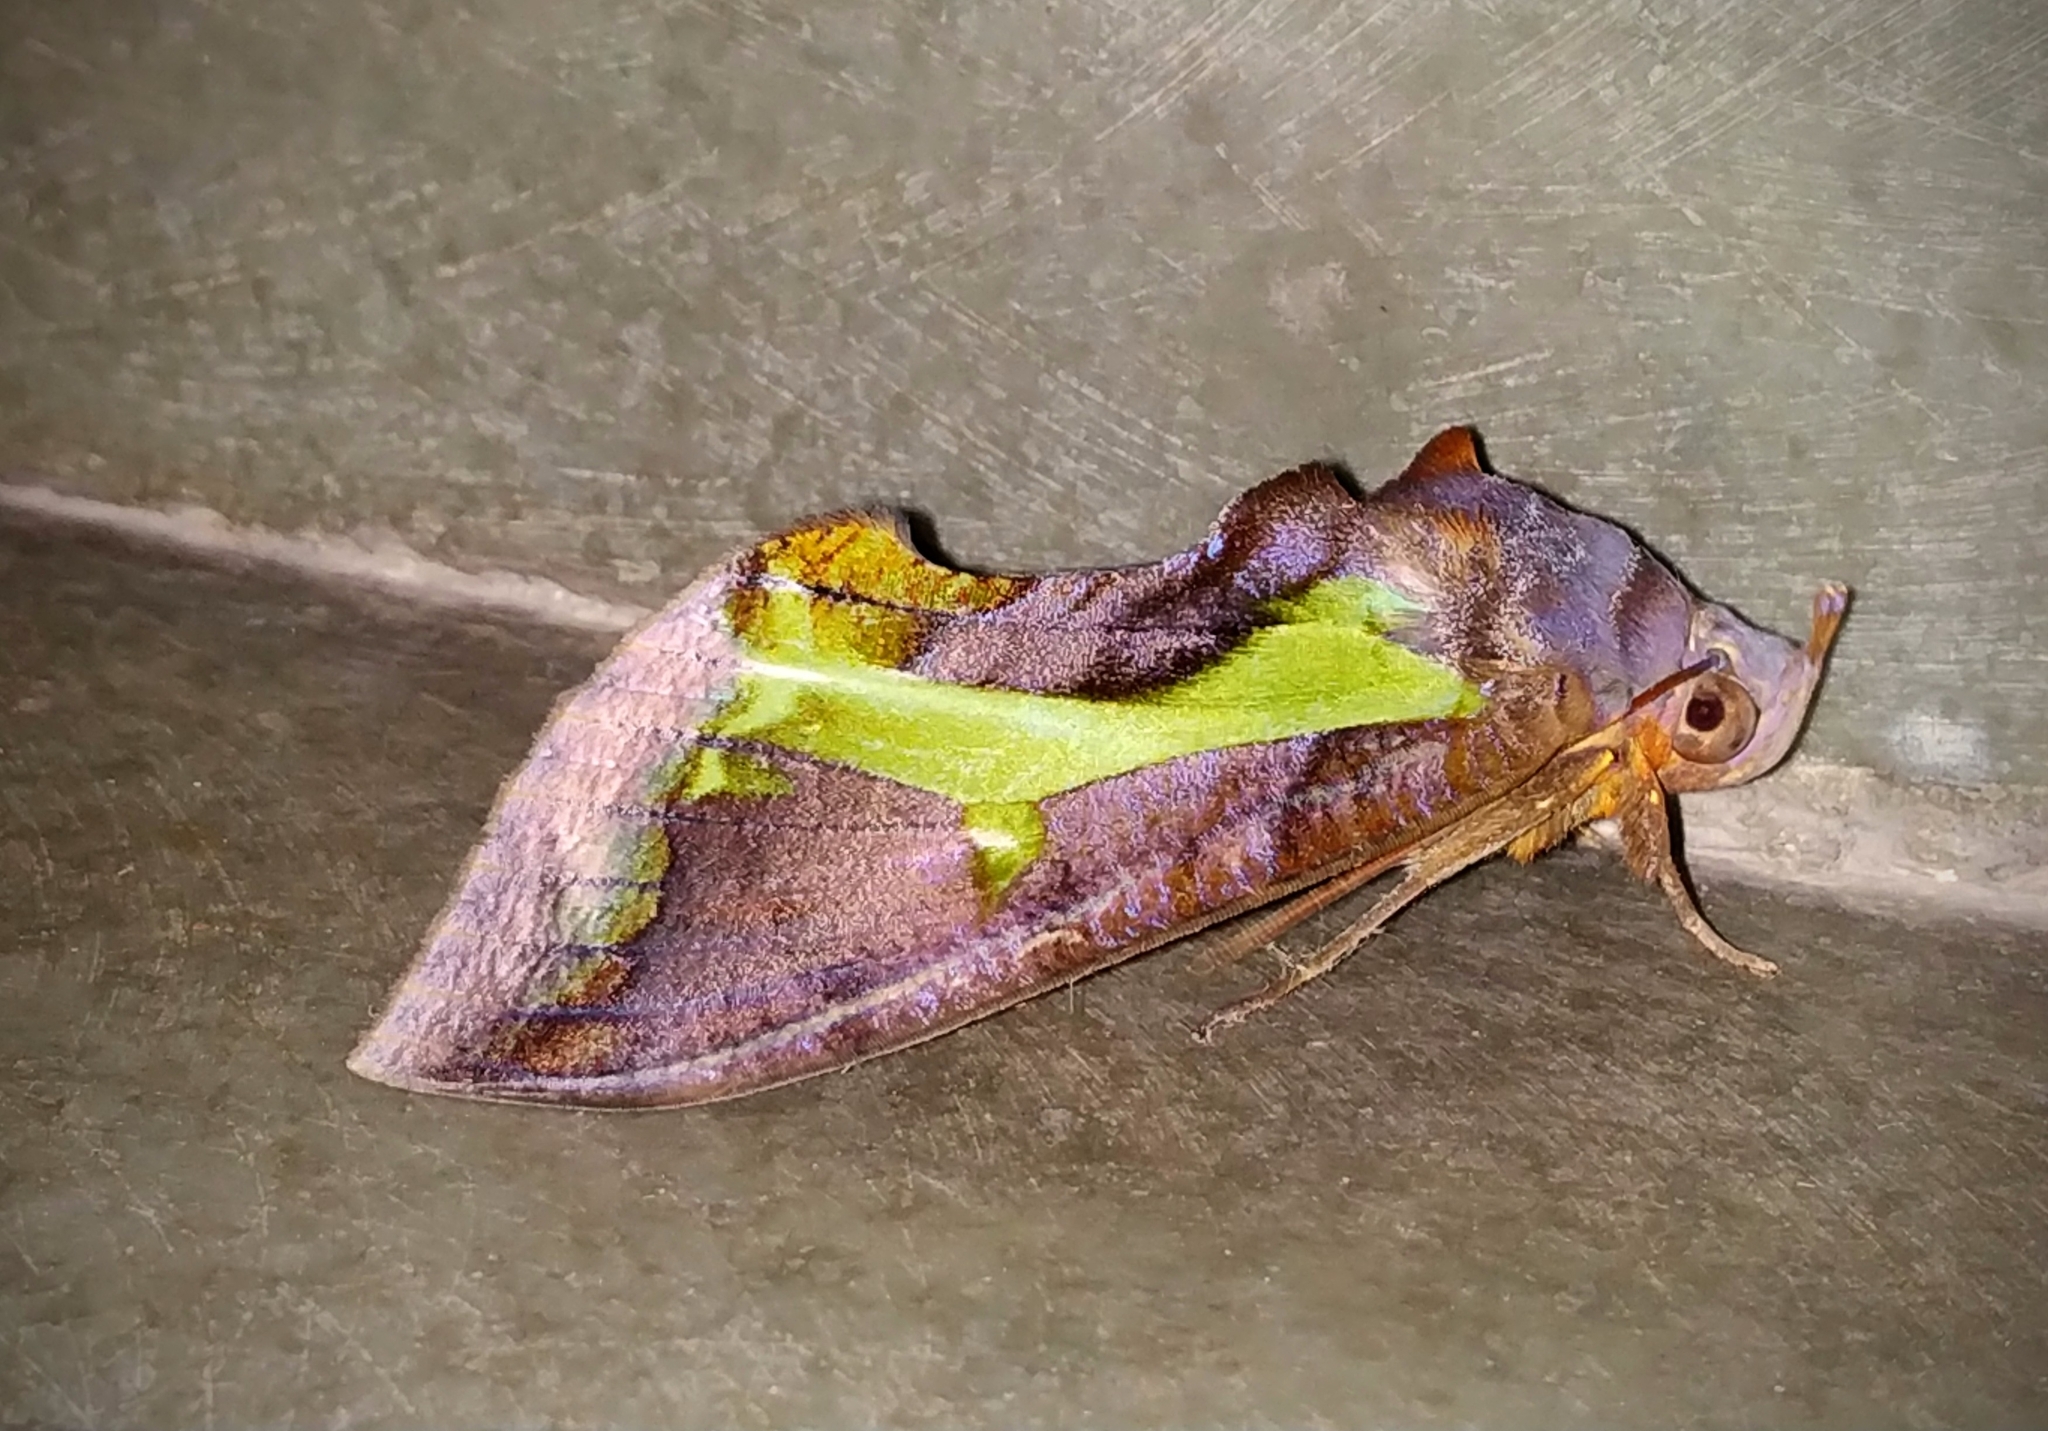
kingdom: Animalia
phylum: Arthropoda
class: Insecta
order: Lepidoptera
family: Erebidae
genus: Eudocima
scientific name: Eudocima homaena
